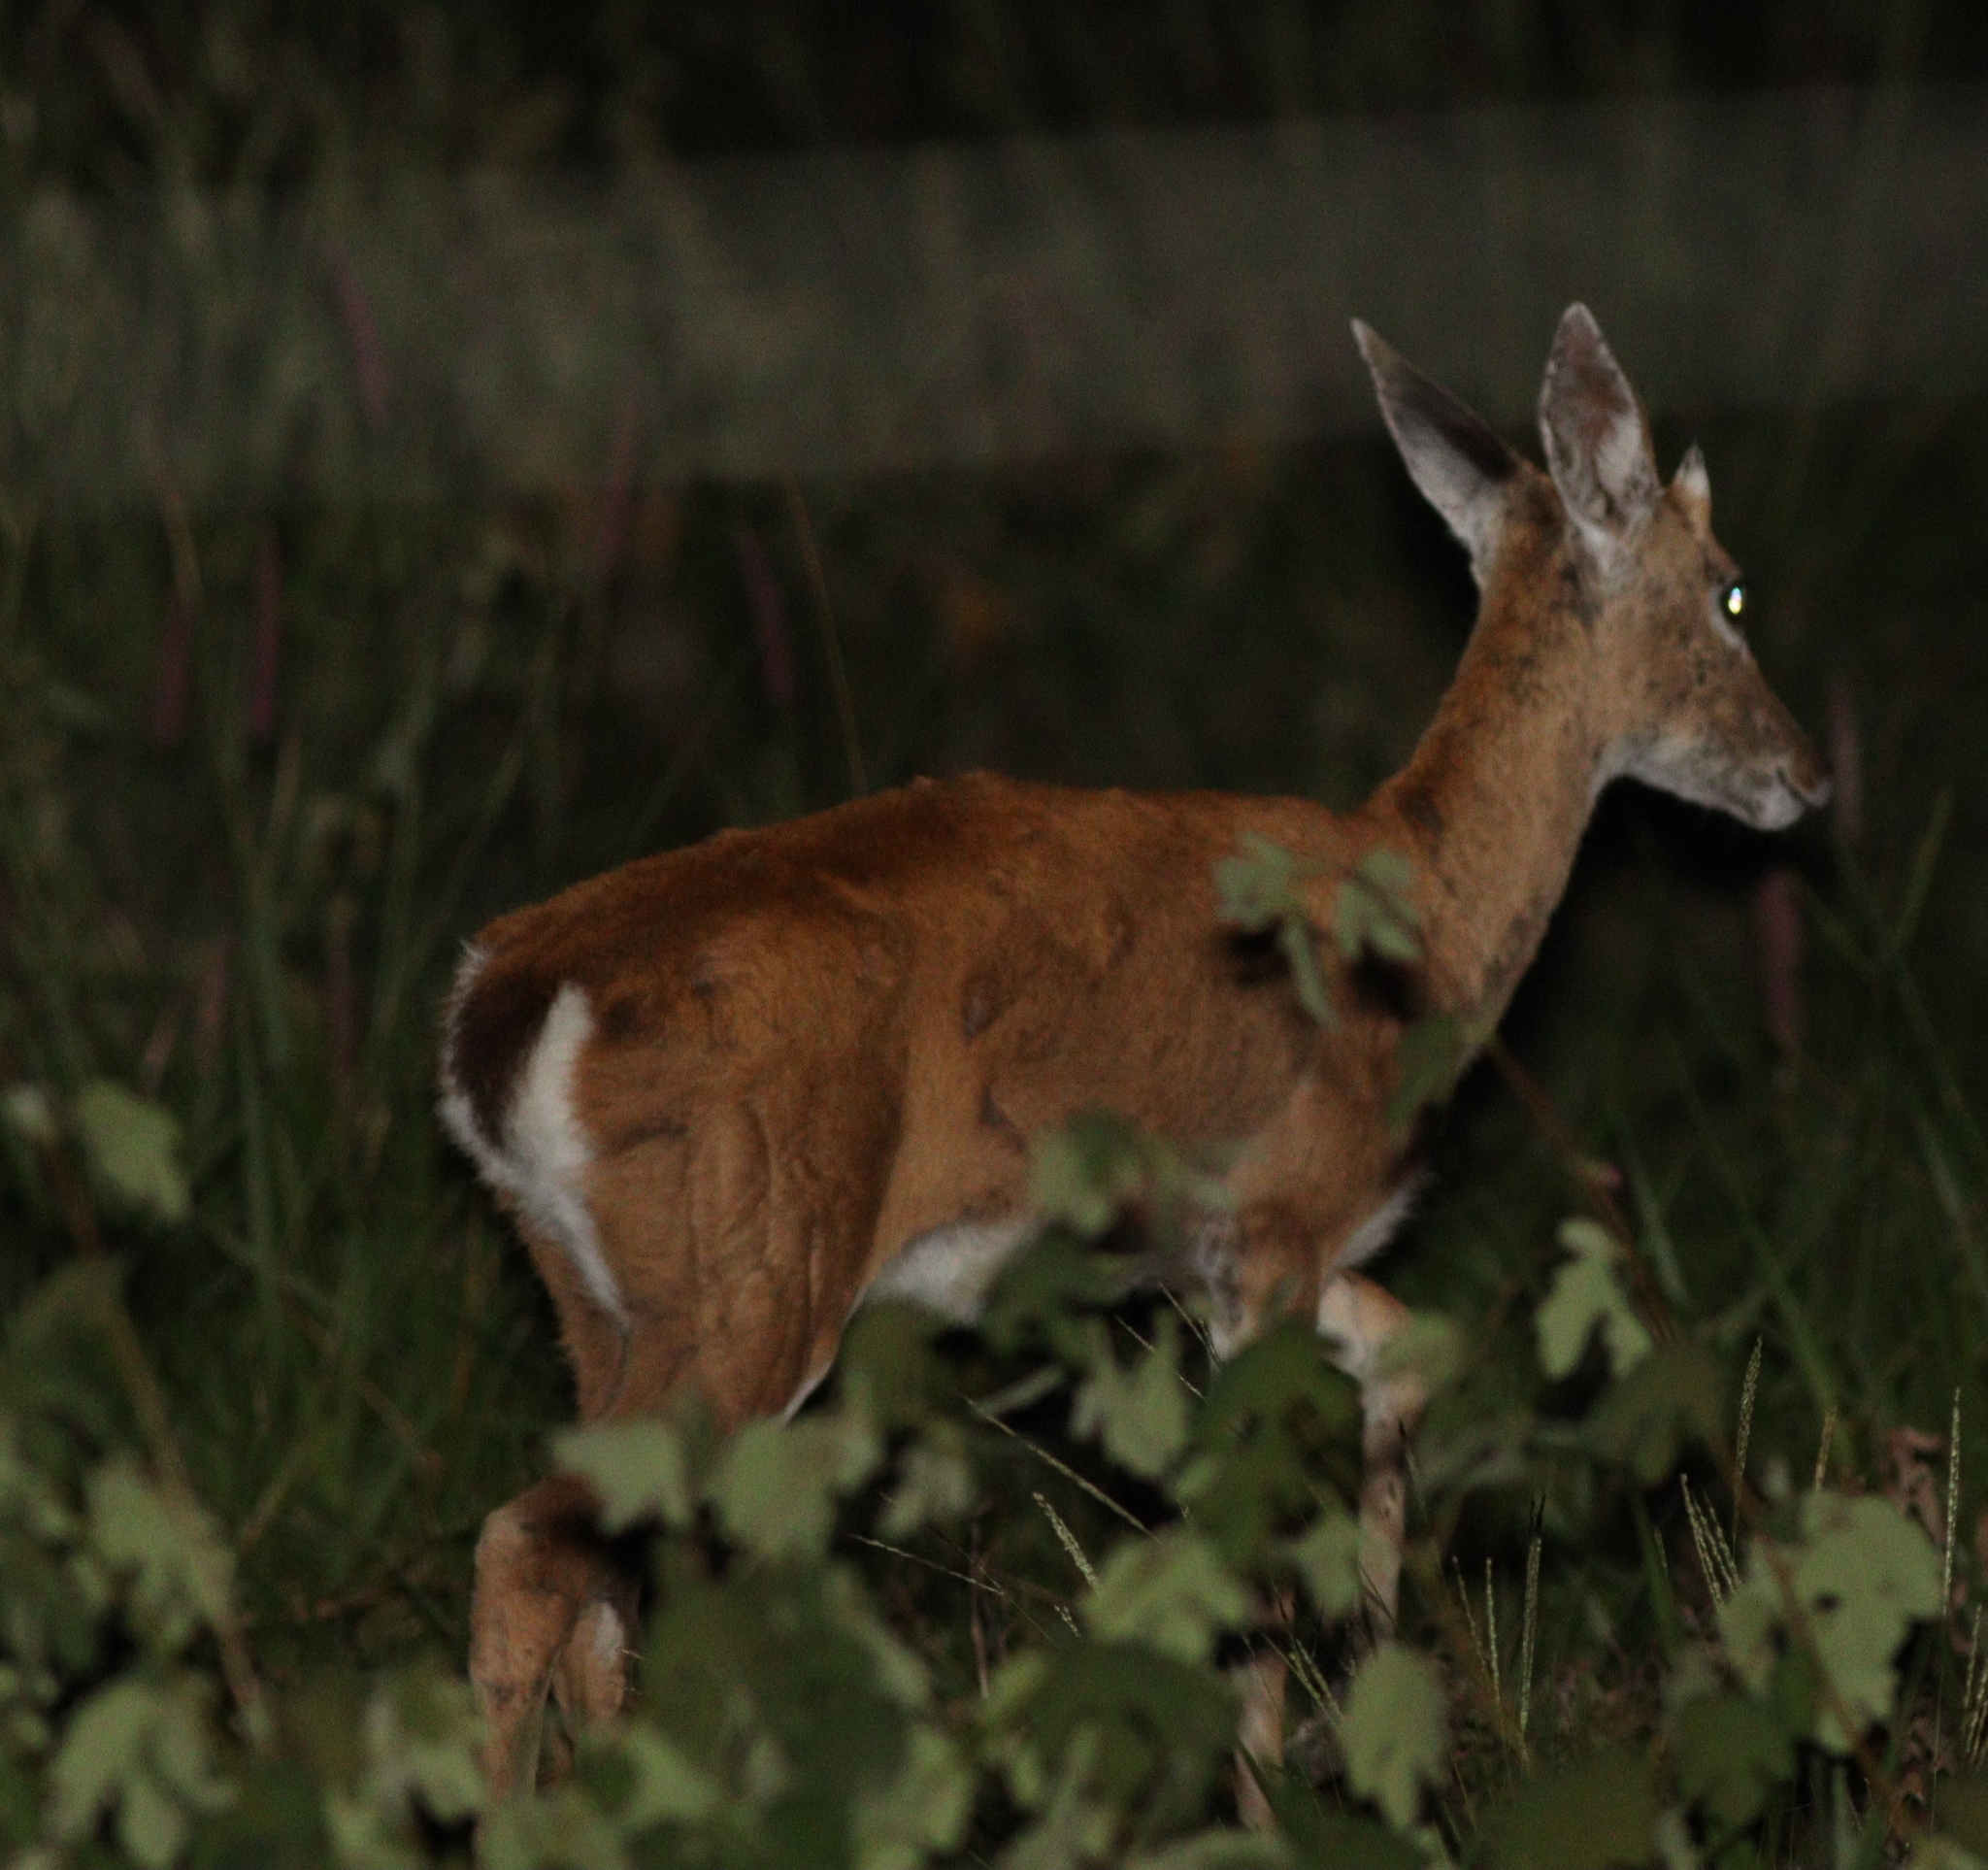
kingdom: Animalia
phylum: Chordata
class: Mammalia
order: Artiodactyla
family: Cervidae
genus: Ozotoceros
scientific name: Ozotoceros bezoarticus
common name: Pampas deer
